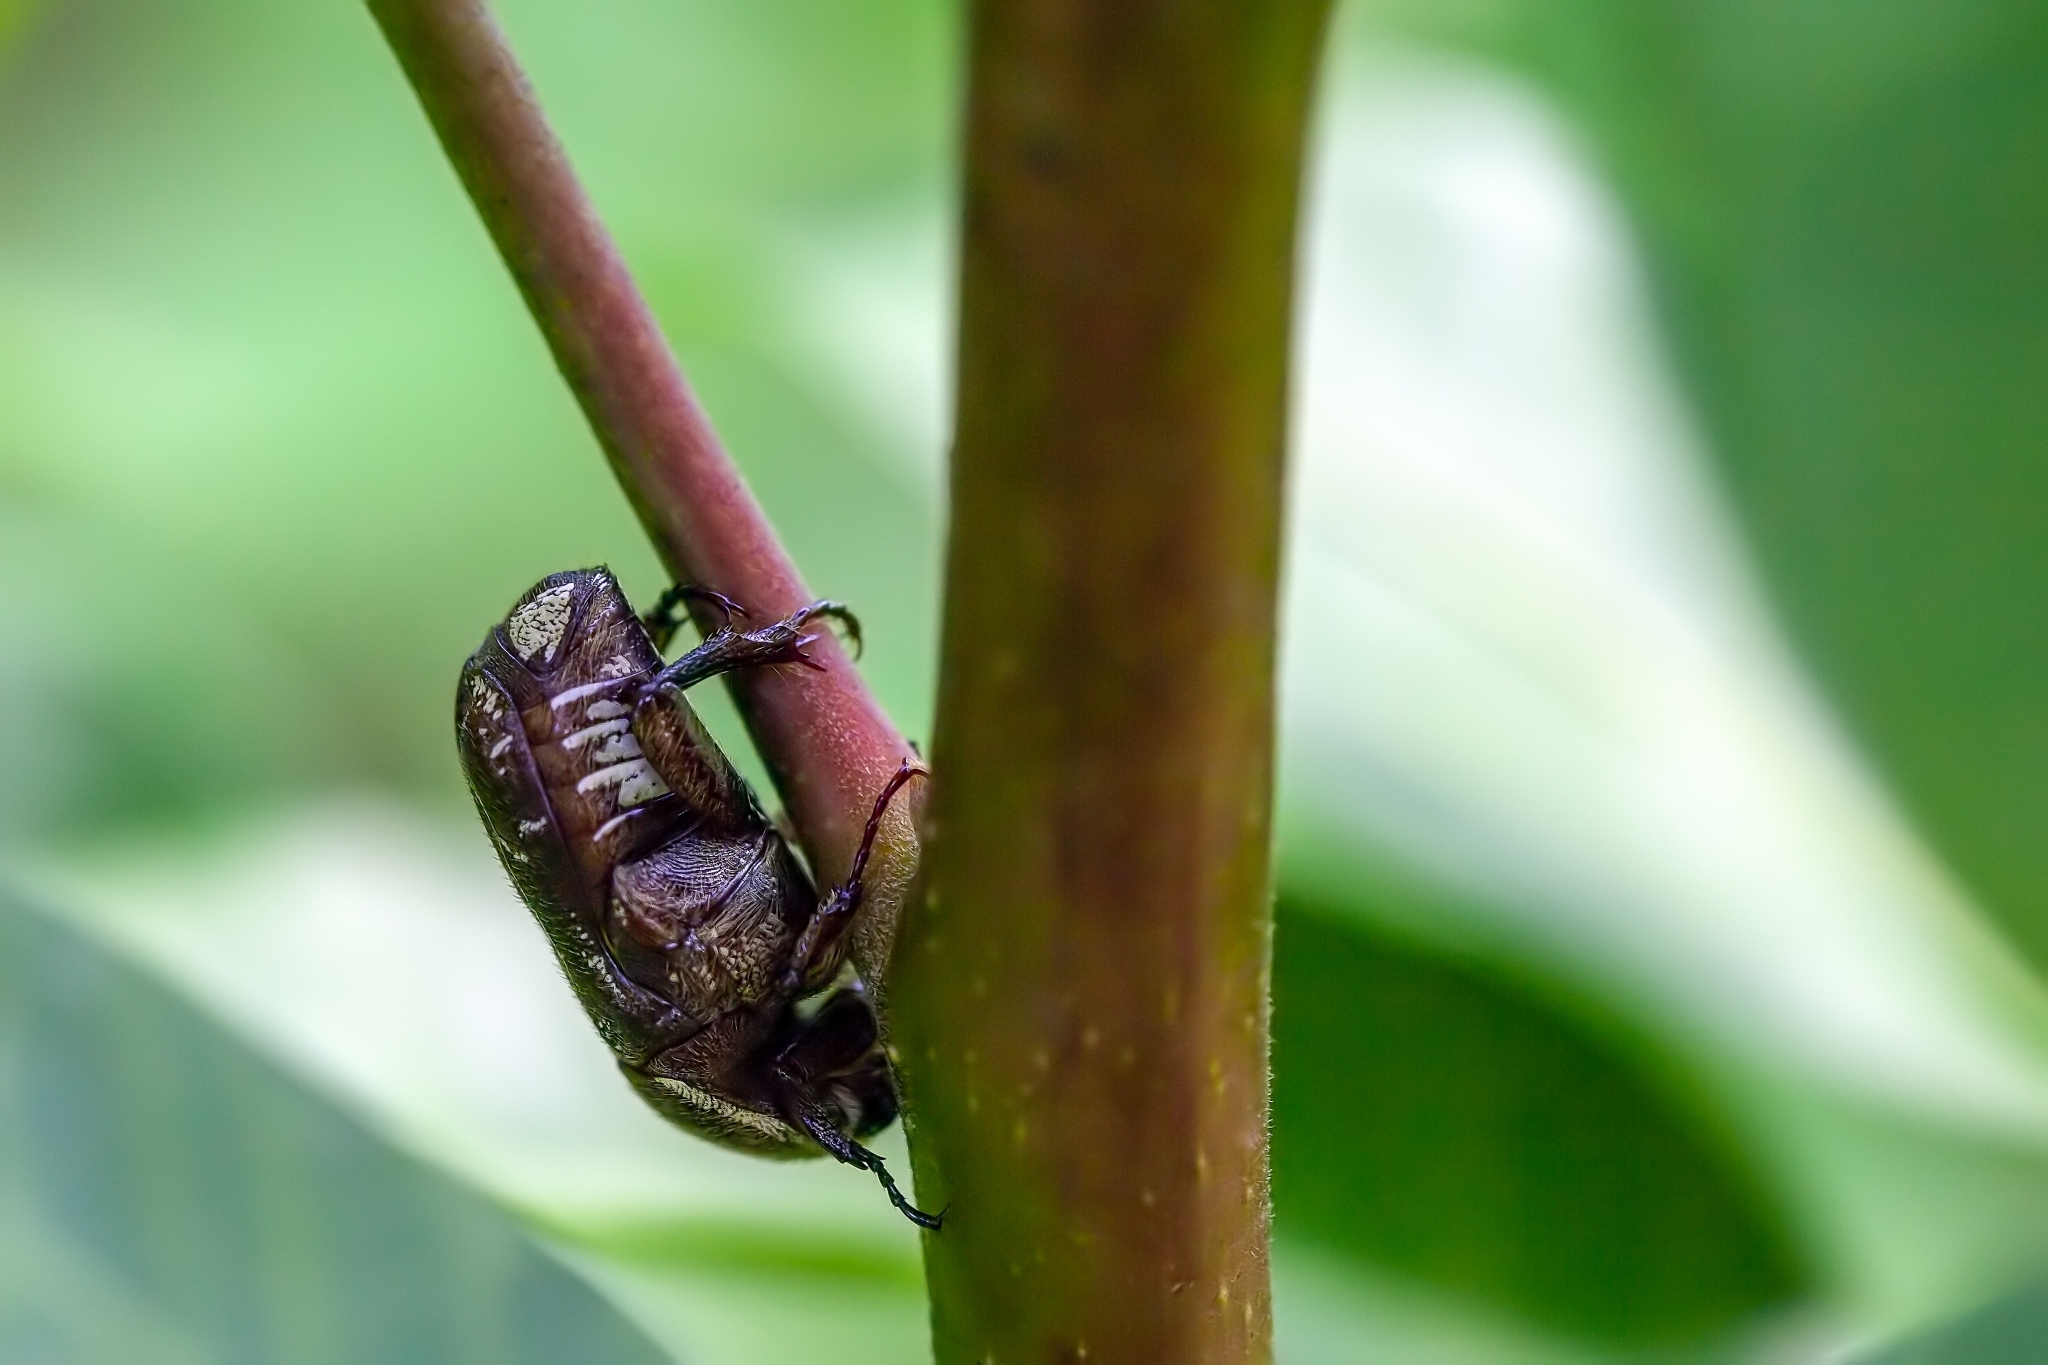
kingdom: Animalia
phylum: Arthropoda
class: Insecta
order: Coleoptera
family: Scarabaeidae
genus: Euphoria
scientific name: Euphoria sepulcralis
